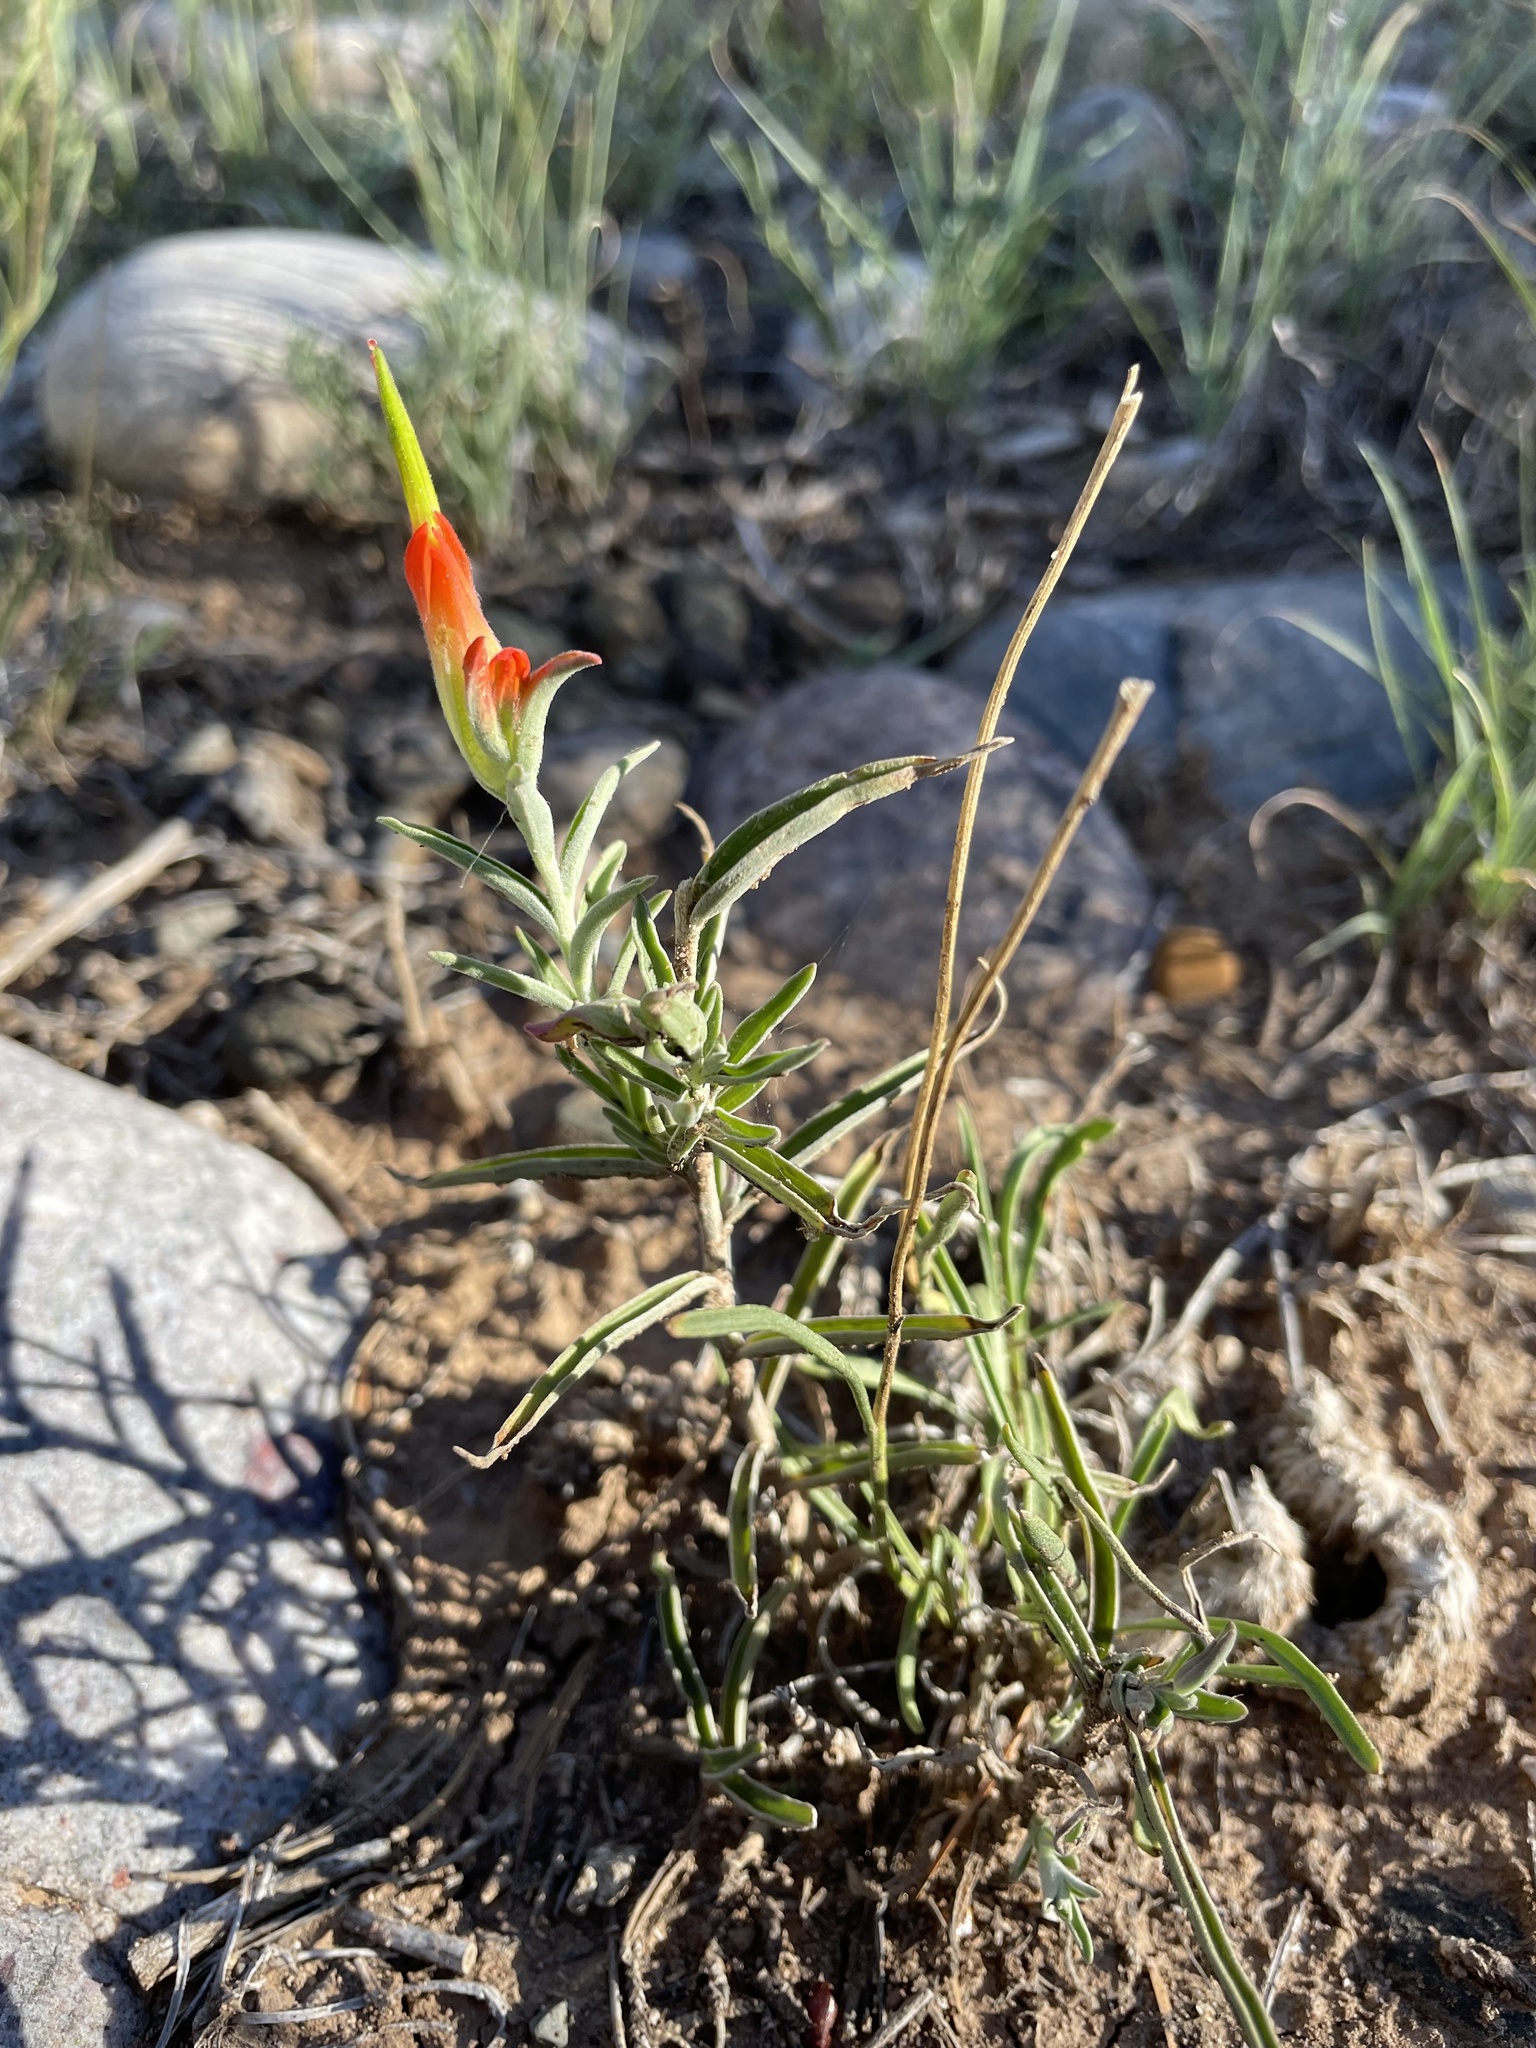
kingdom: Plantae
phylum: Tracheophyta
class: Magnoliopsida
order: Lamiales
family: Orobanchaceae
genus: Castilleja
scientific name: Castilleja integra
